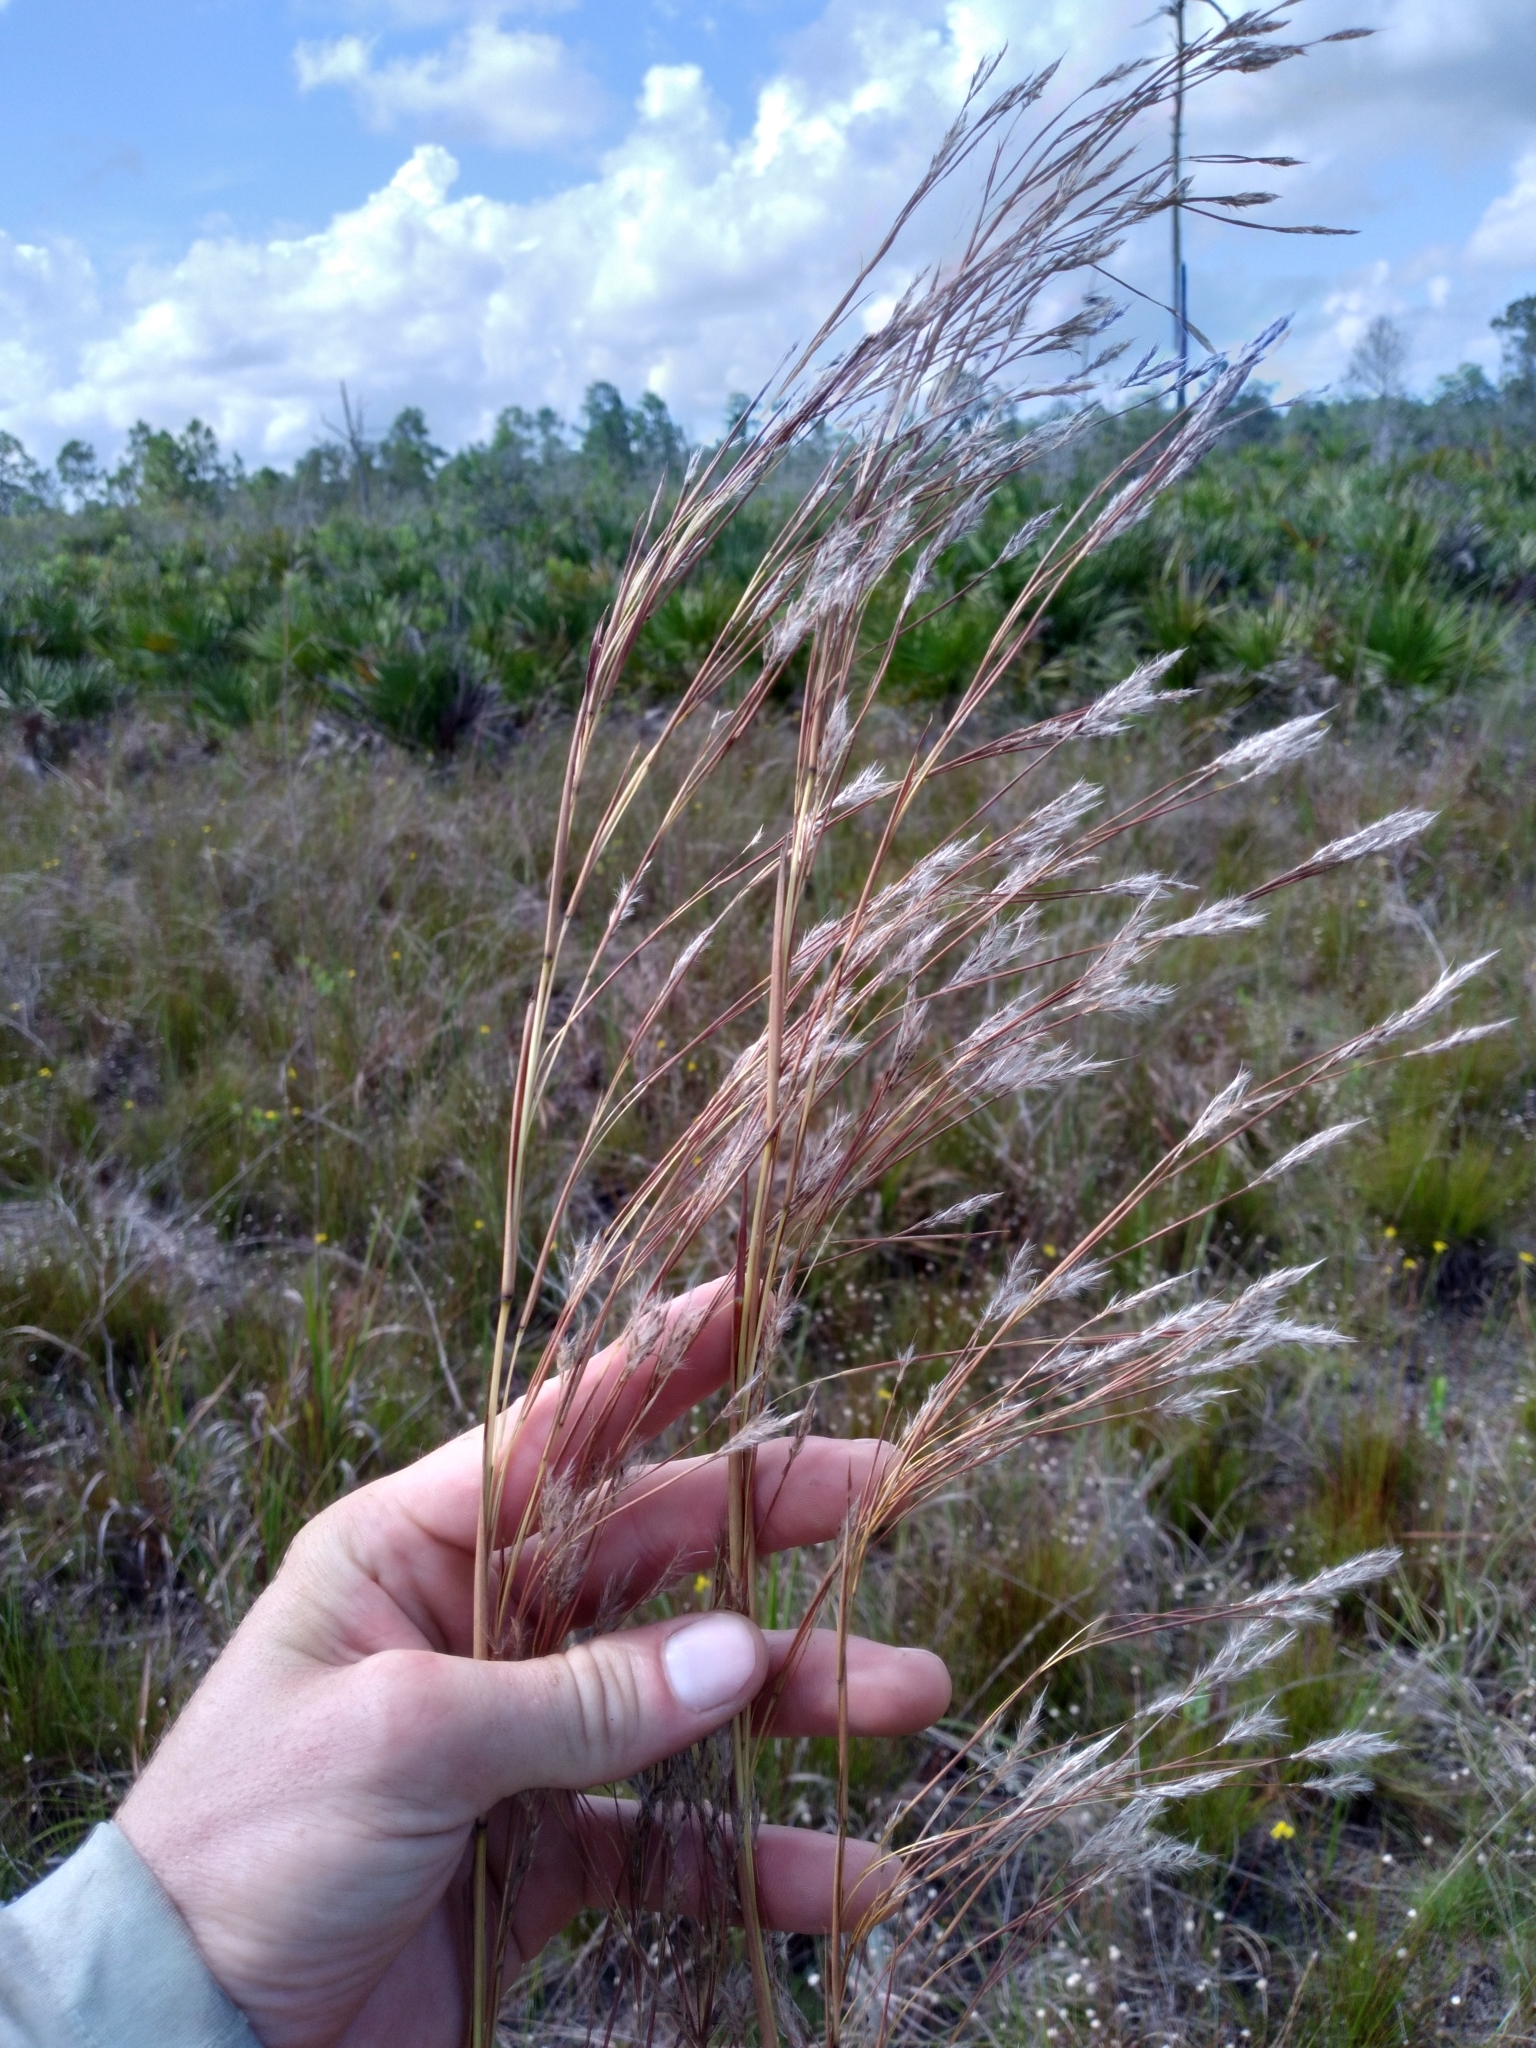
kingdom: Plantae
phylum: Tracheophyta
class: Liliopsida
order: Poales
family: Poaceae
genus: Andropogon
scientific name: Andropogon brachystachyus
